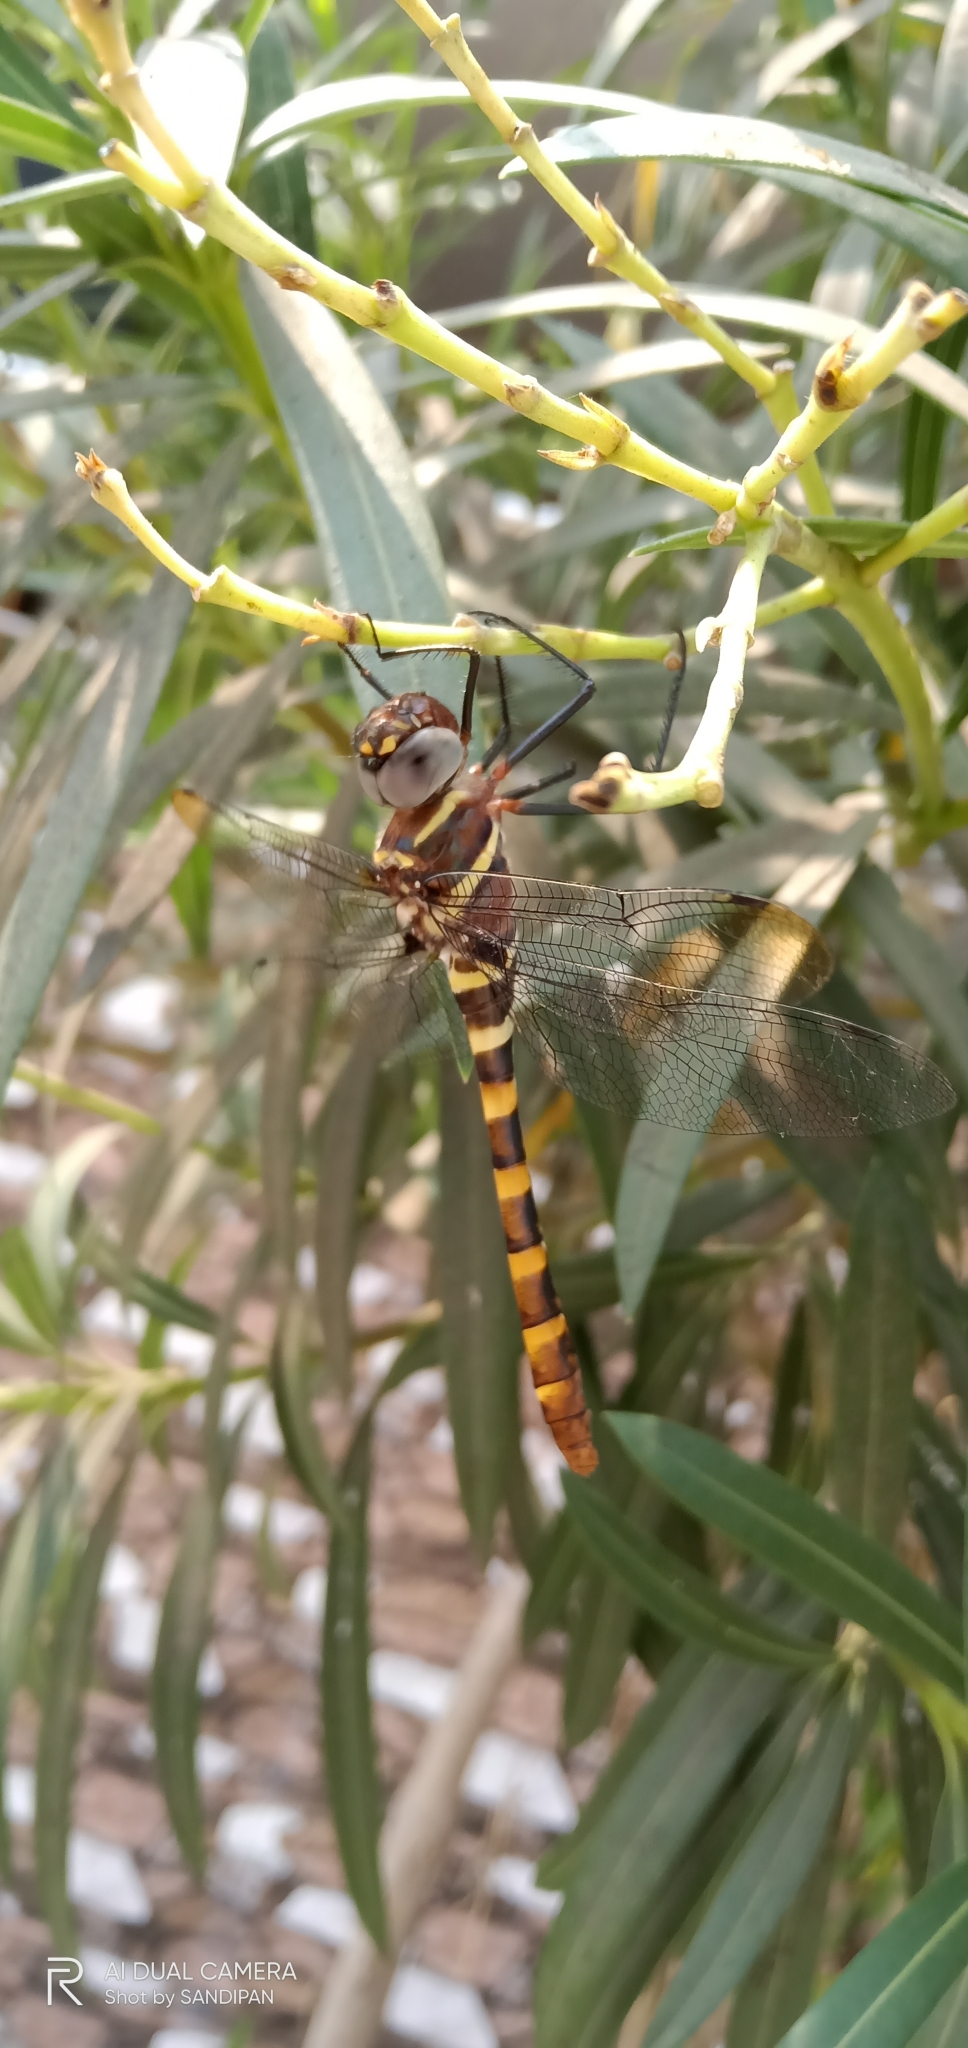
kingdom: Animalia
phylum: Arthropoda
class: Insecta
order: Odonata
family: Macromiidae
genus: Epophthalmia
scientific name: Epophthalmia vittata
